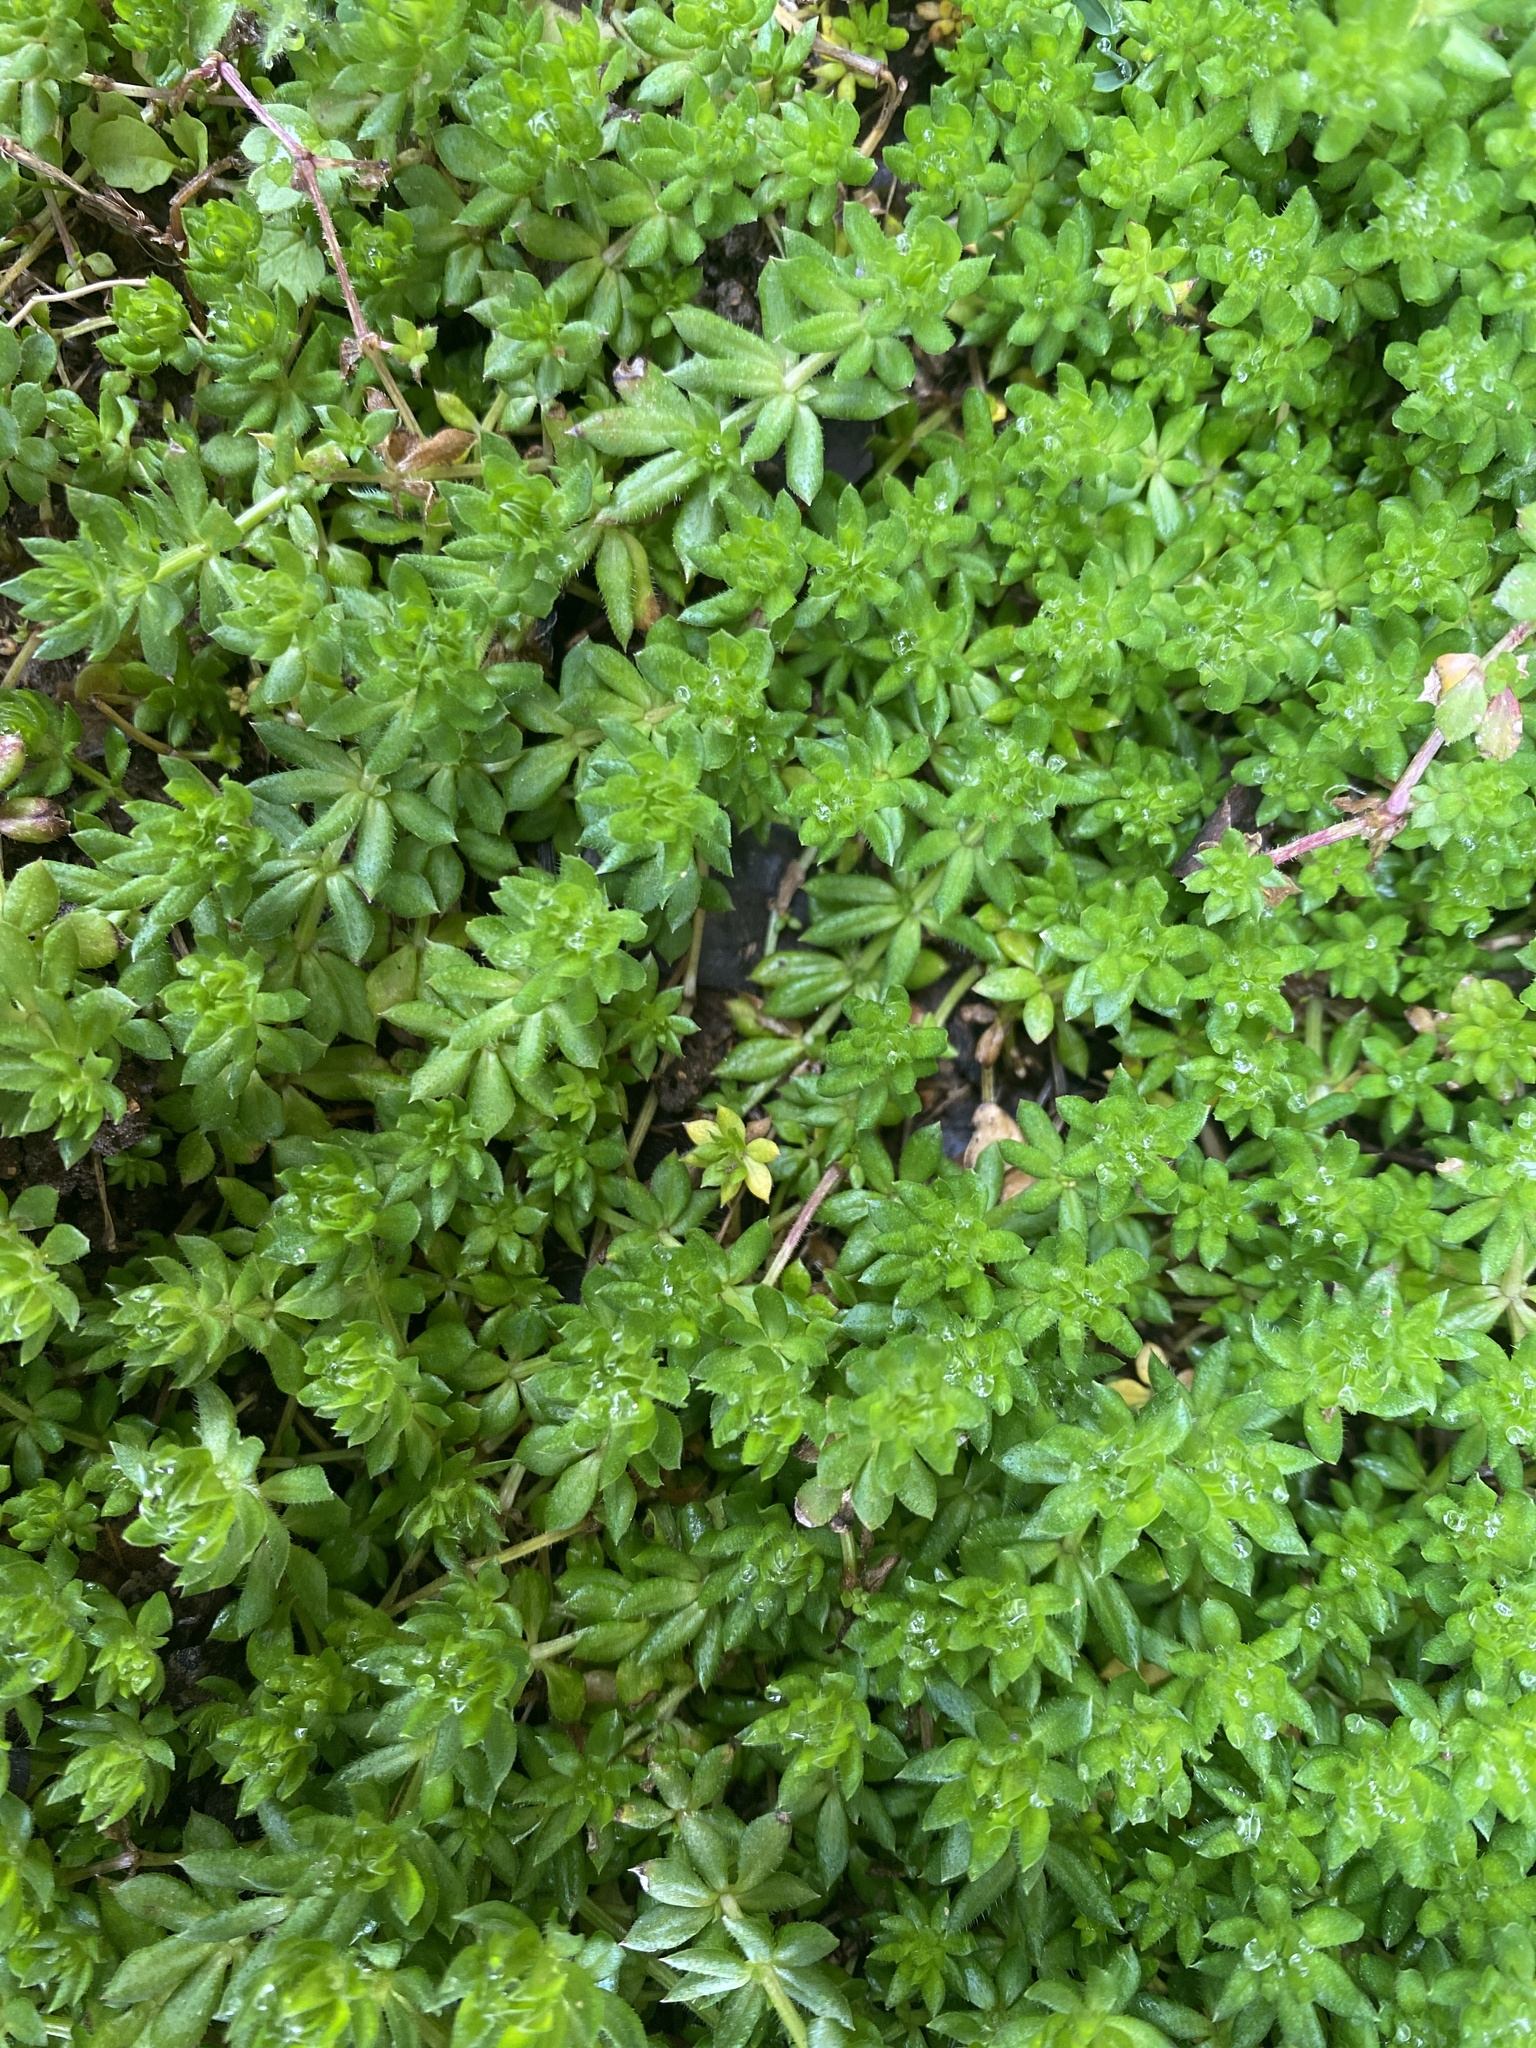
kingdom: Plantae
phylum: Tracheophyta
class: Magnoliopsida
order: Gentianales
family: Rubiaceae
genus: Sherardia
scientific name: Sherardia arvensis
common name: Field madder
